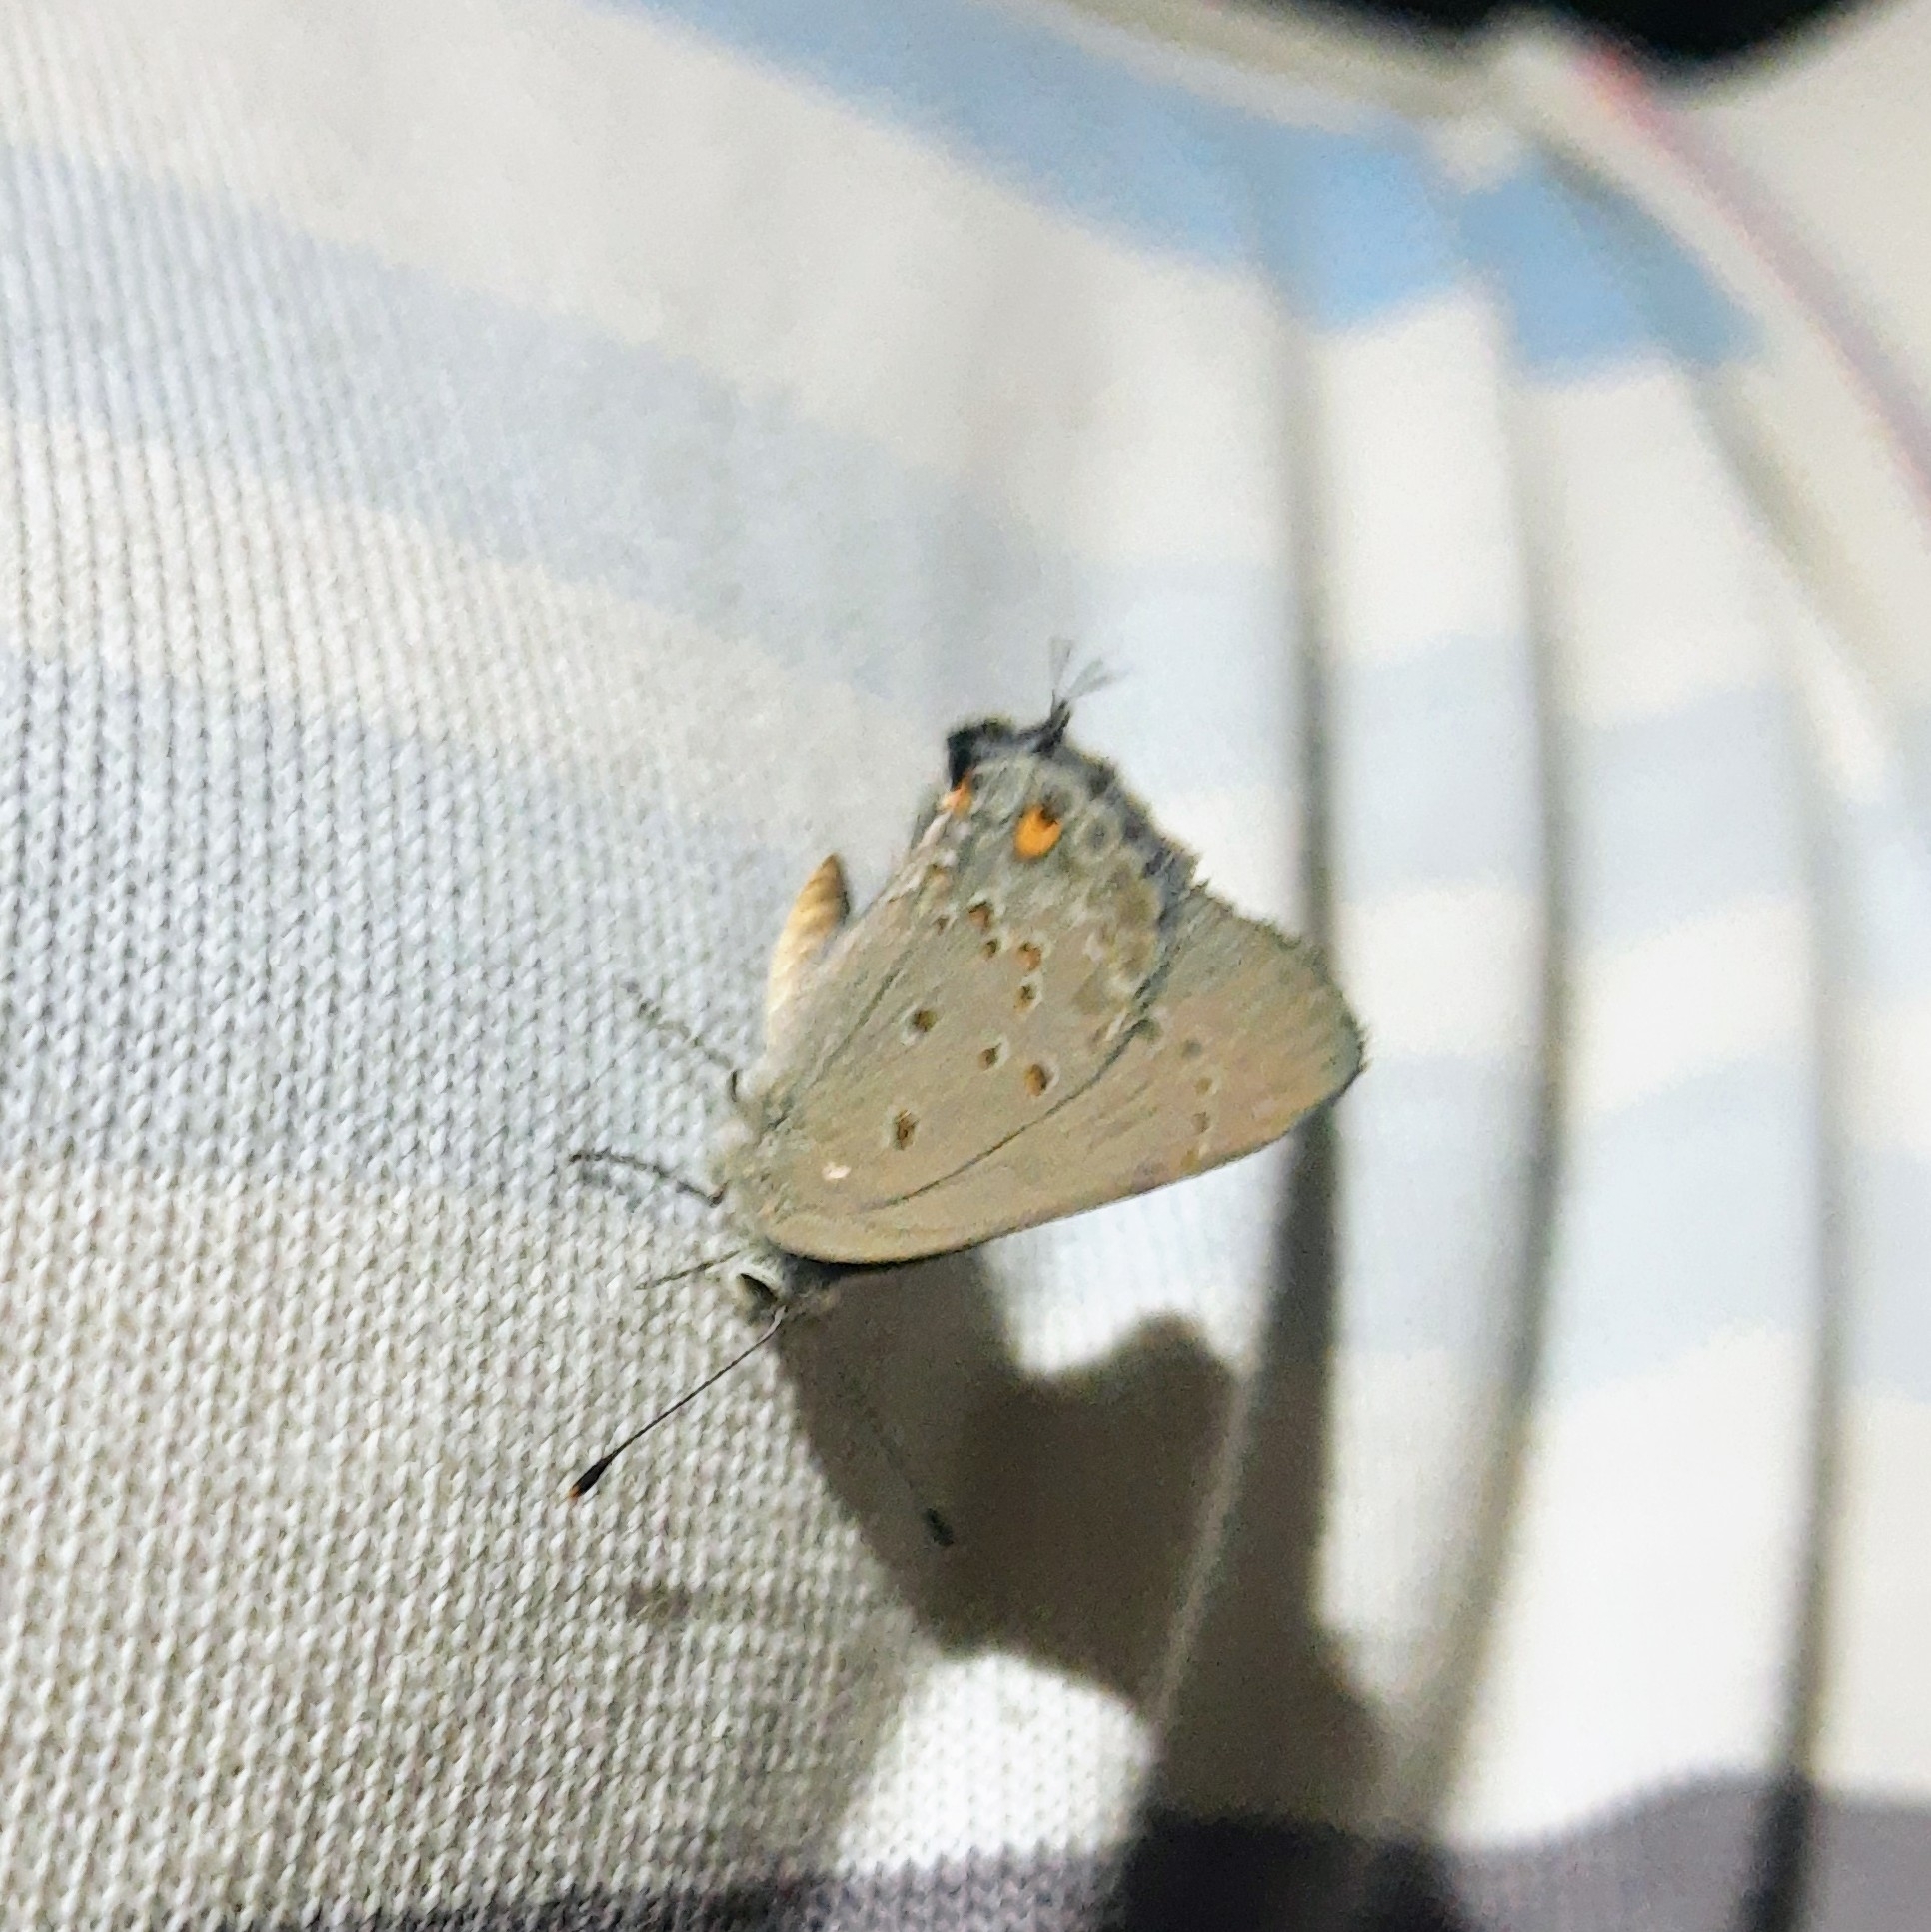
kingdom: Animalia
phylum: Arthropoda
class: Insecta
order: Lepidoptera
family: Lycaenidae
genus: Strymon
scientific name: Strymon eurytulus
